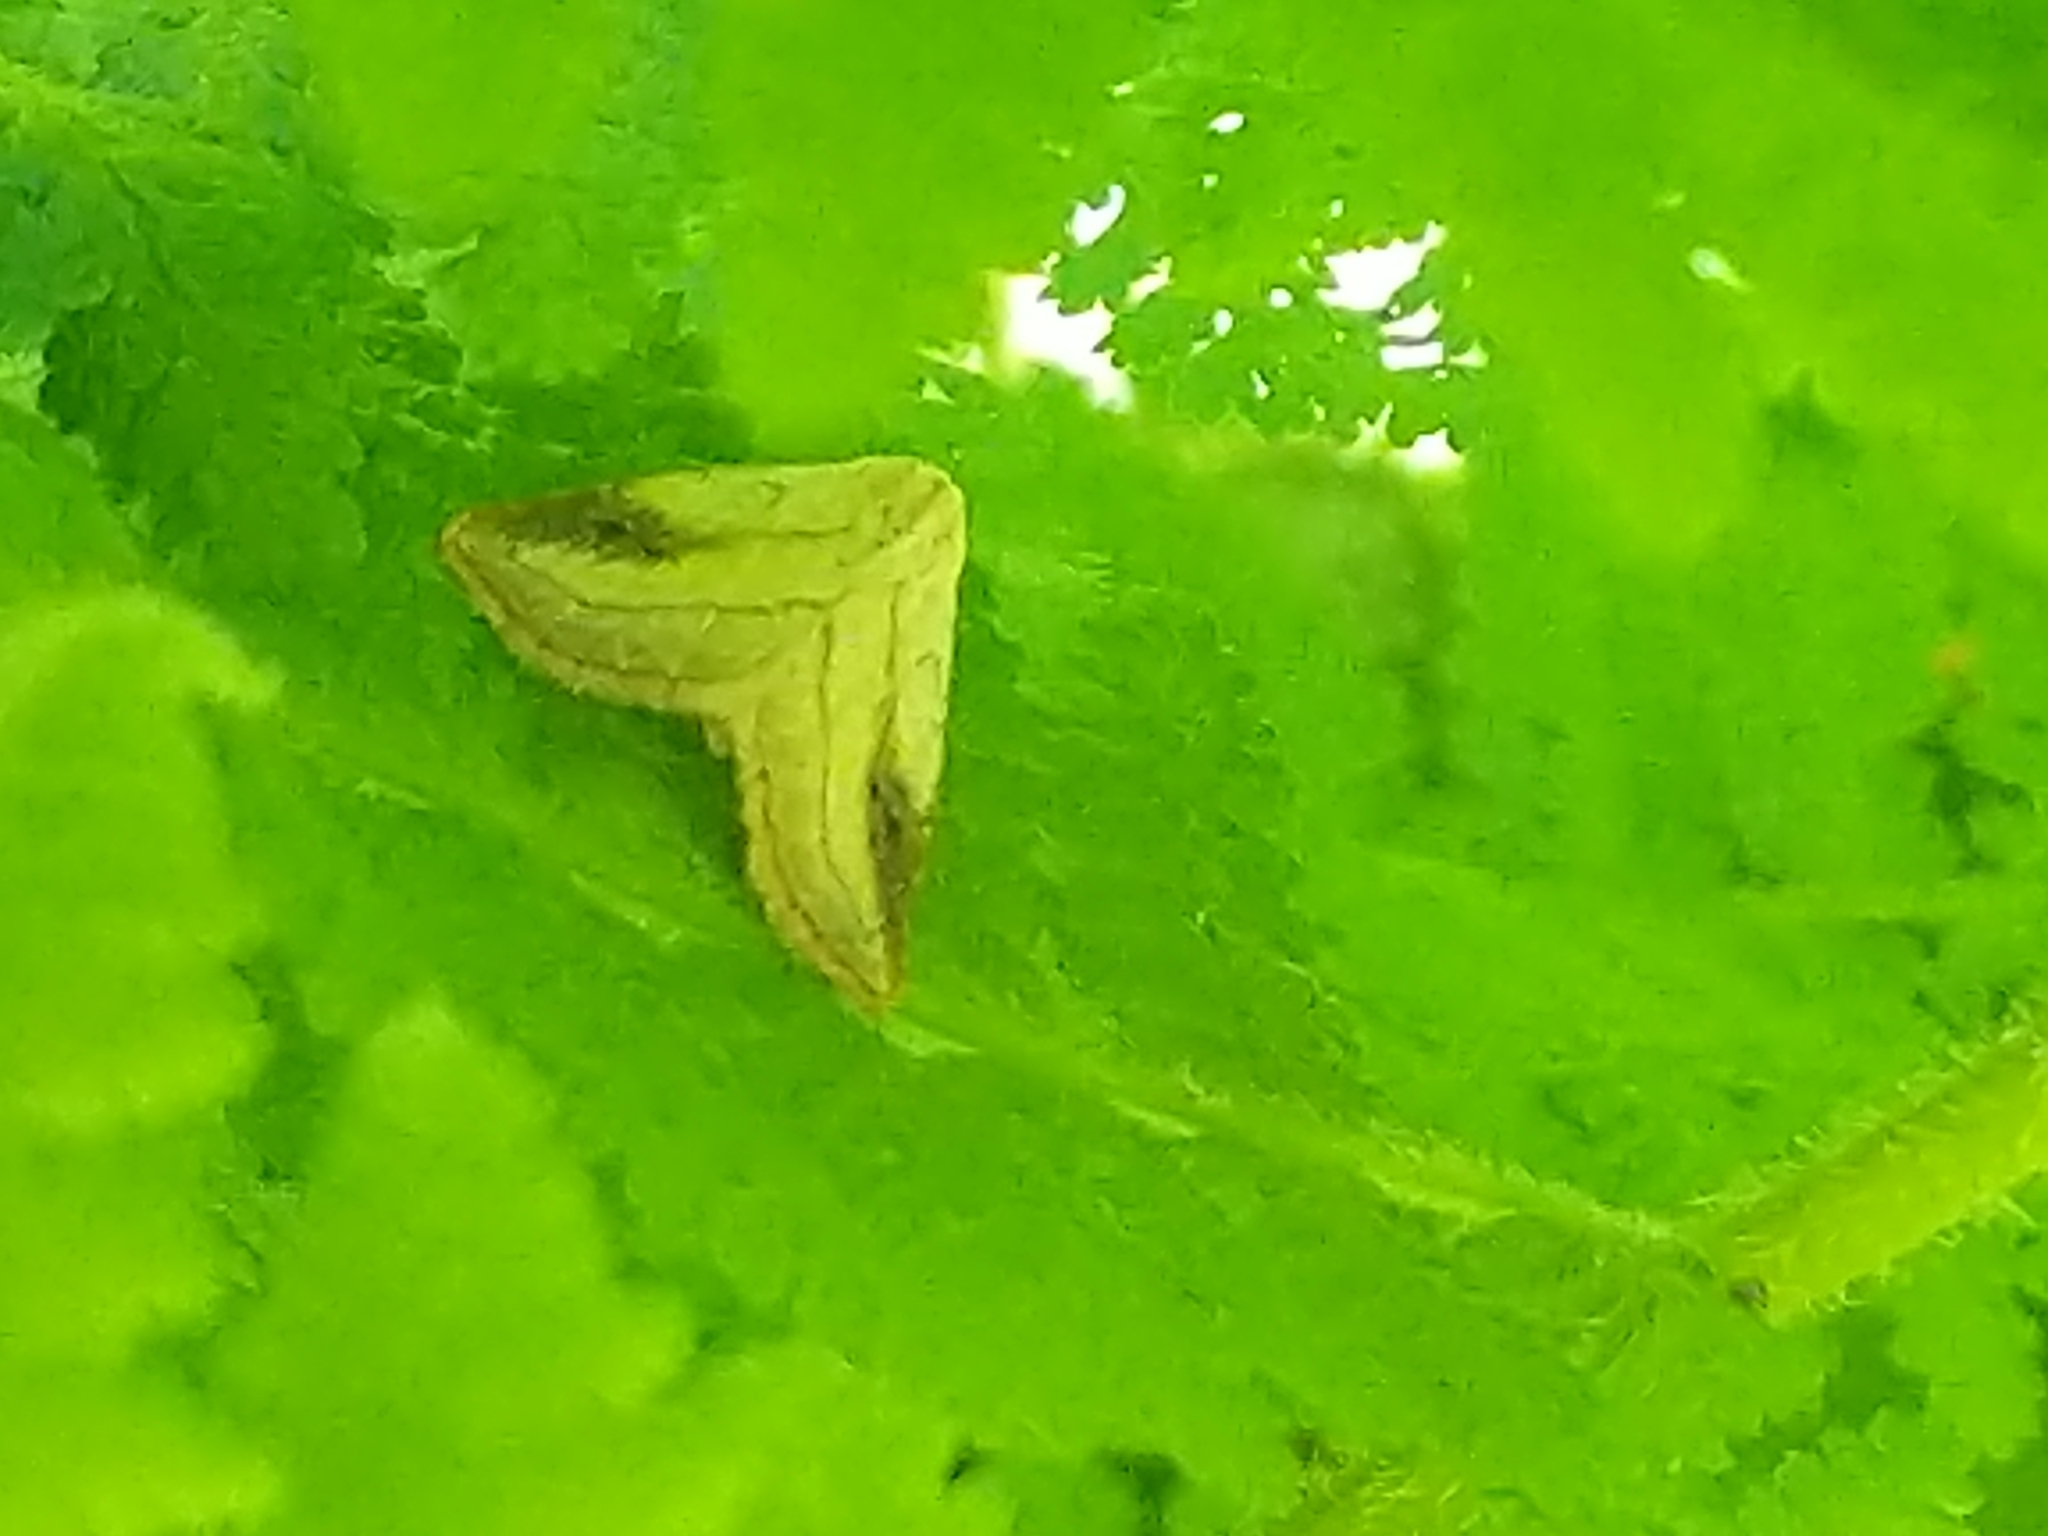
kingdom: Animalia
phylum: Arthropoda
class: Insecta
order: Lepidoptera
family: Erebidae
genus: Rivula
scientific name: Rivula propinqualis
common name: Spotted grass moth
